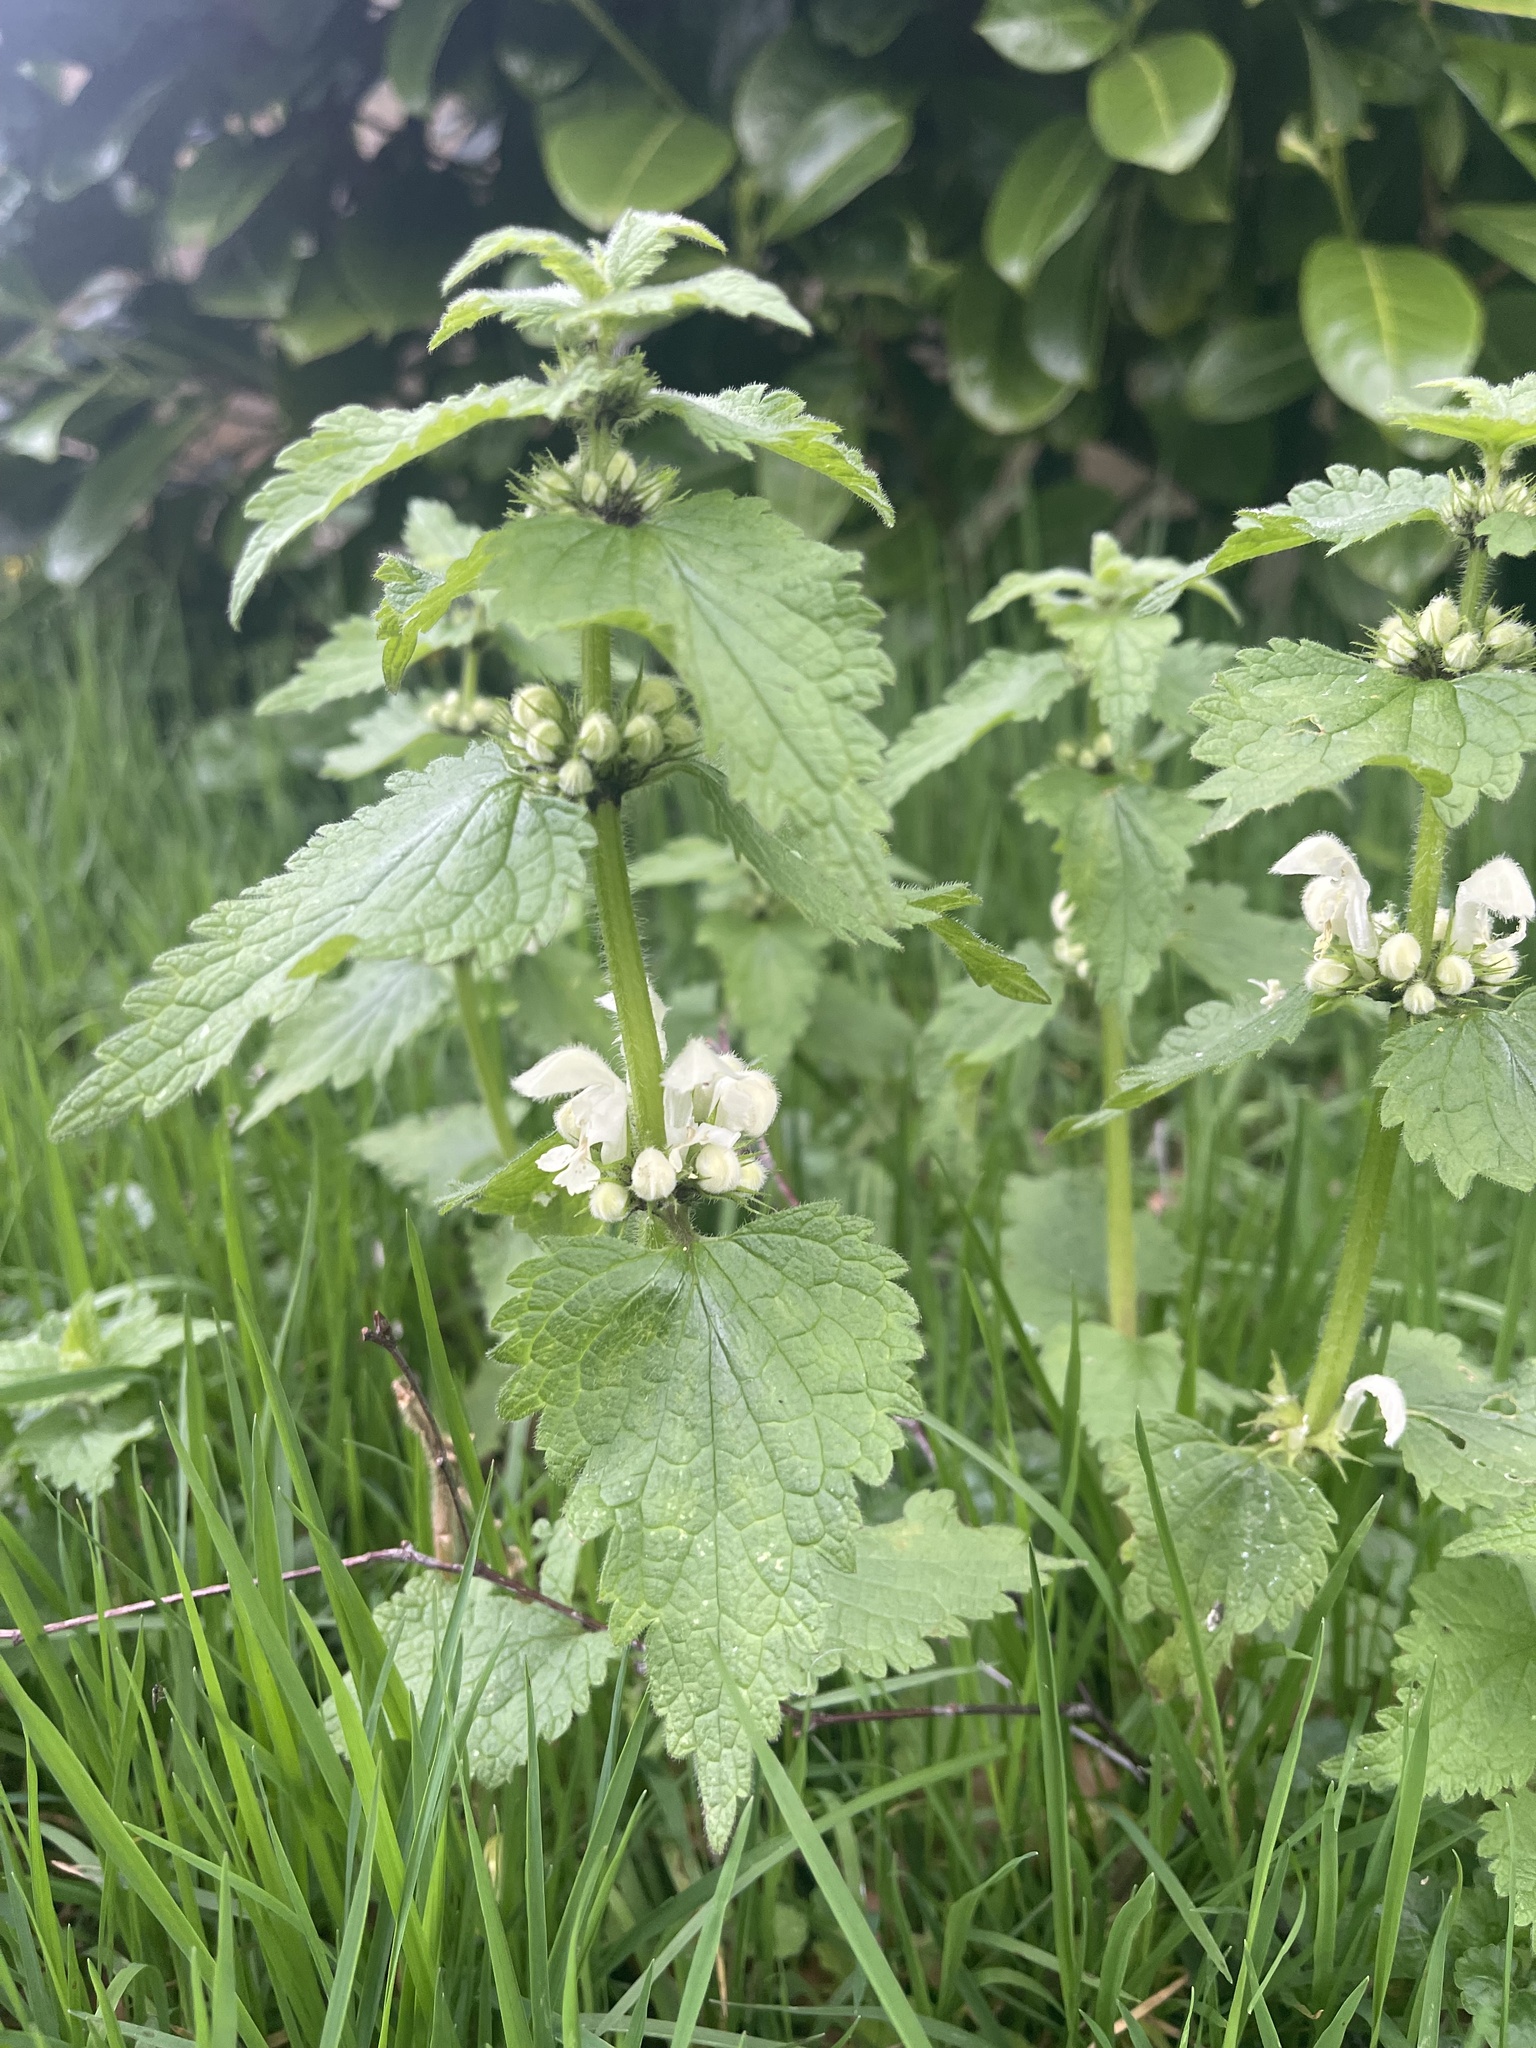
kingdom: Plantae
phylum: Tracheophyta
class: Magnoliopsida
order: Lamiales
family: Lamiaceae
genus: Lamium
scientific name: Lamium album
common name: White dead-nettle
